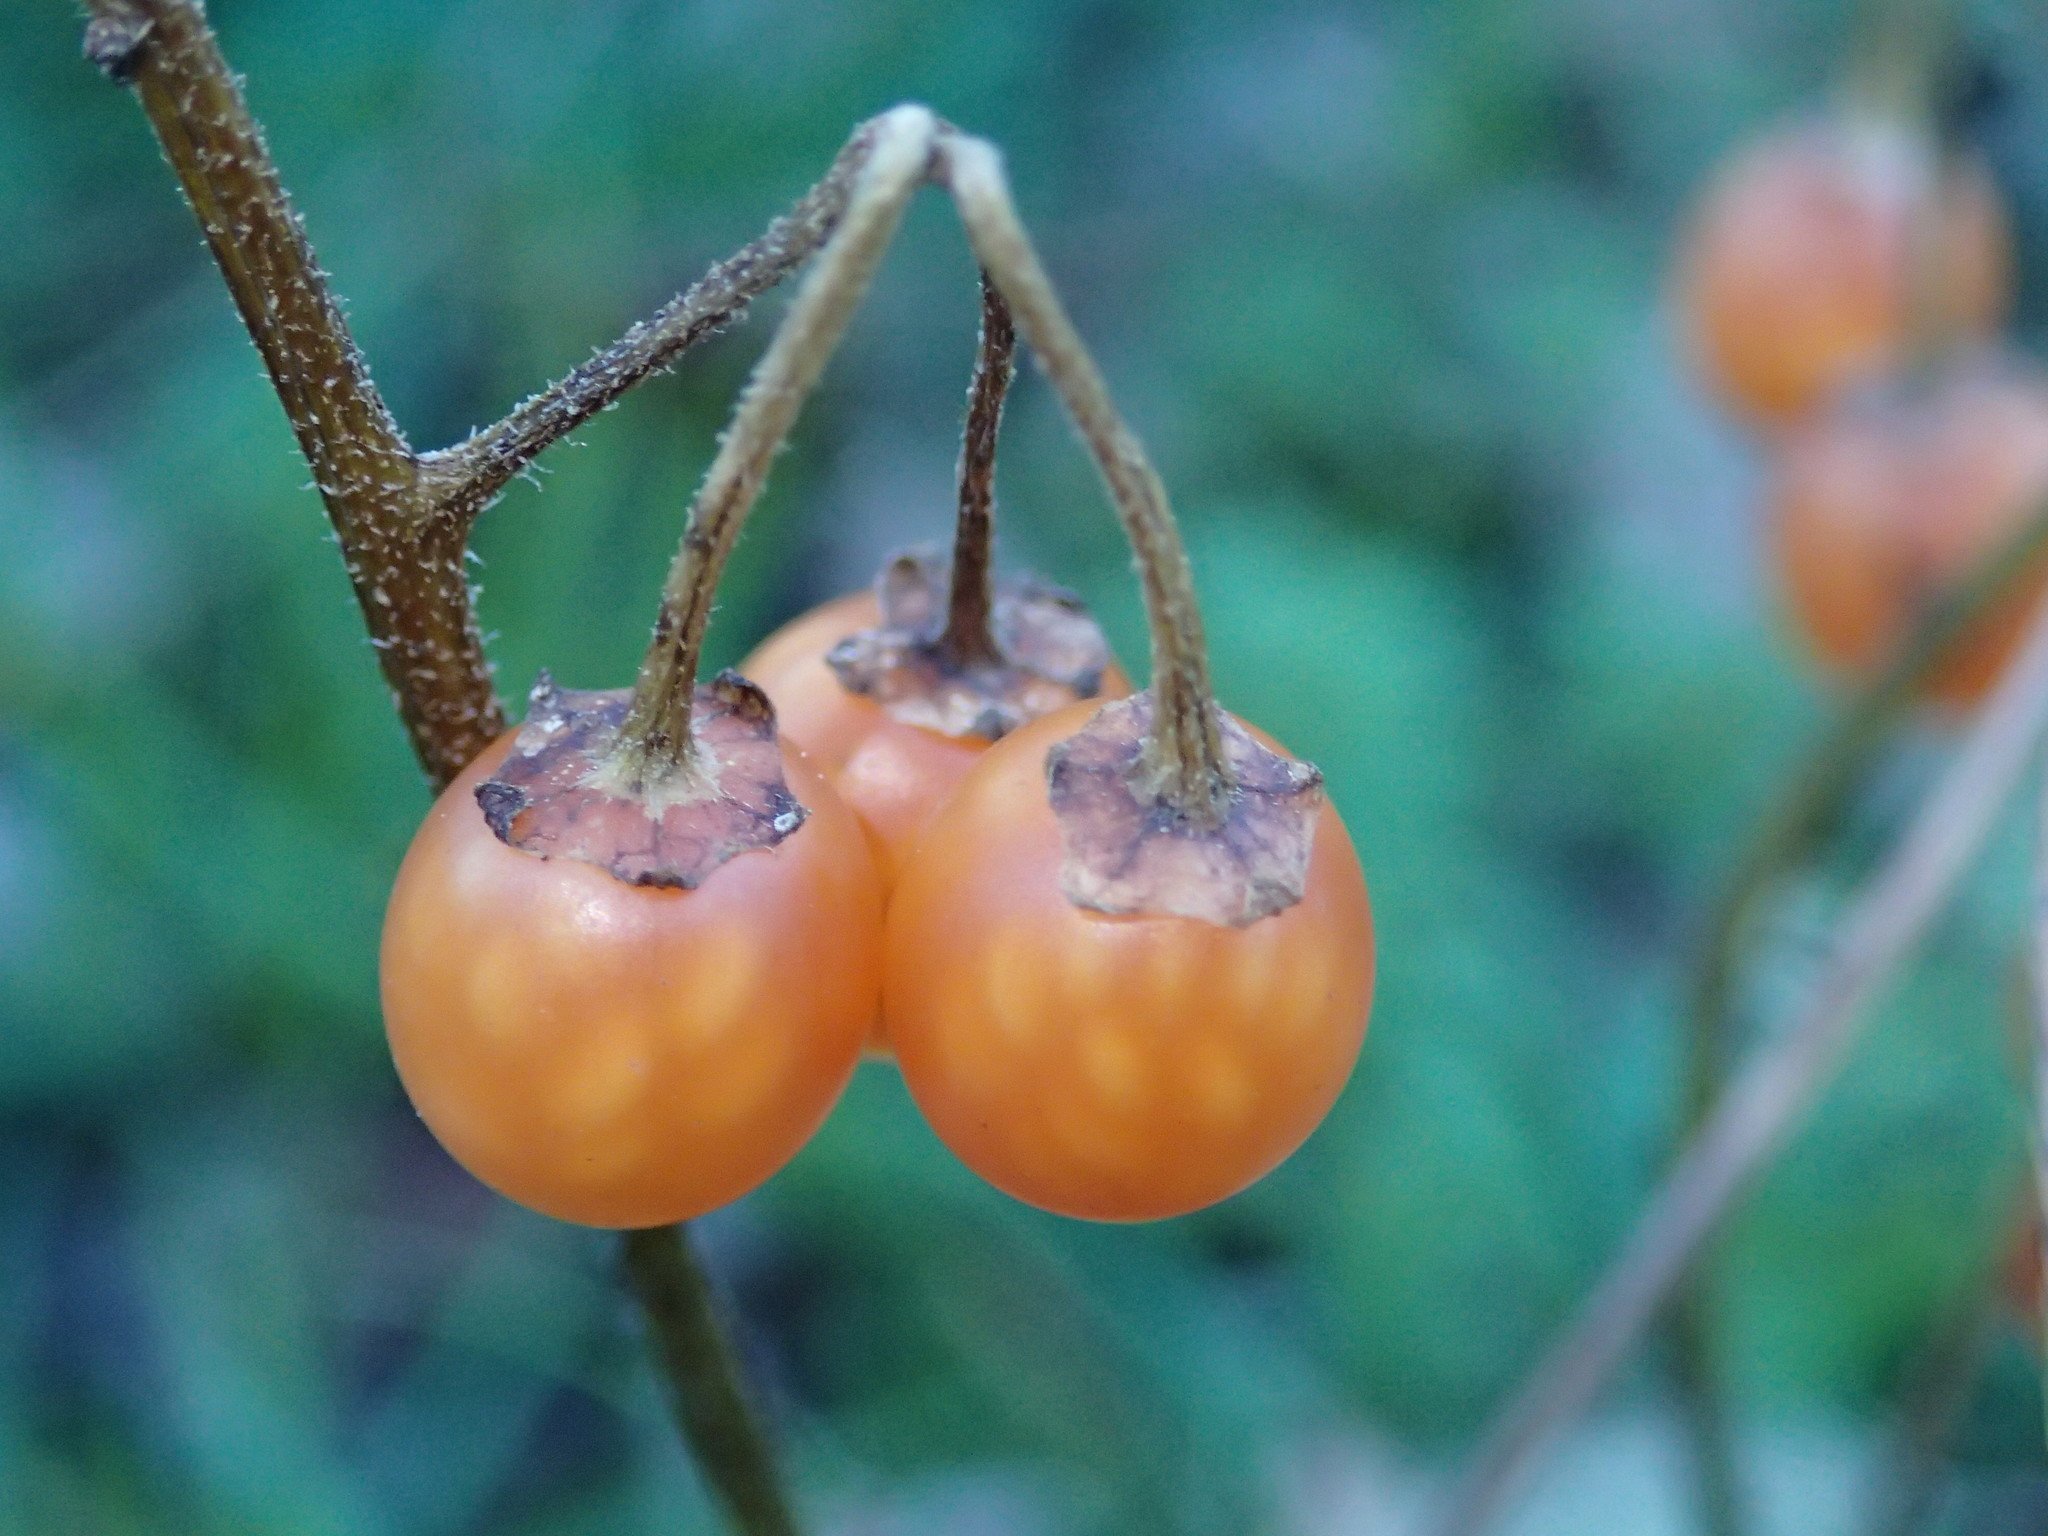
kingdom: Plantae
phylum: Tracheophyta
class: Magnoliopsida
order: Solanales
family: Solanaceae
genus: Solanum
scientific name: Solanum villosum
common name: Red nightshade
